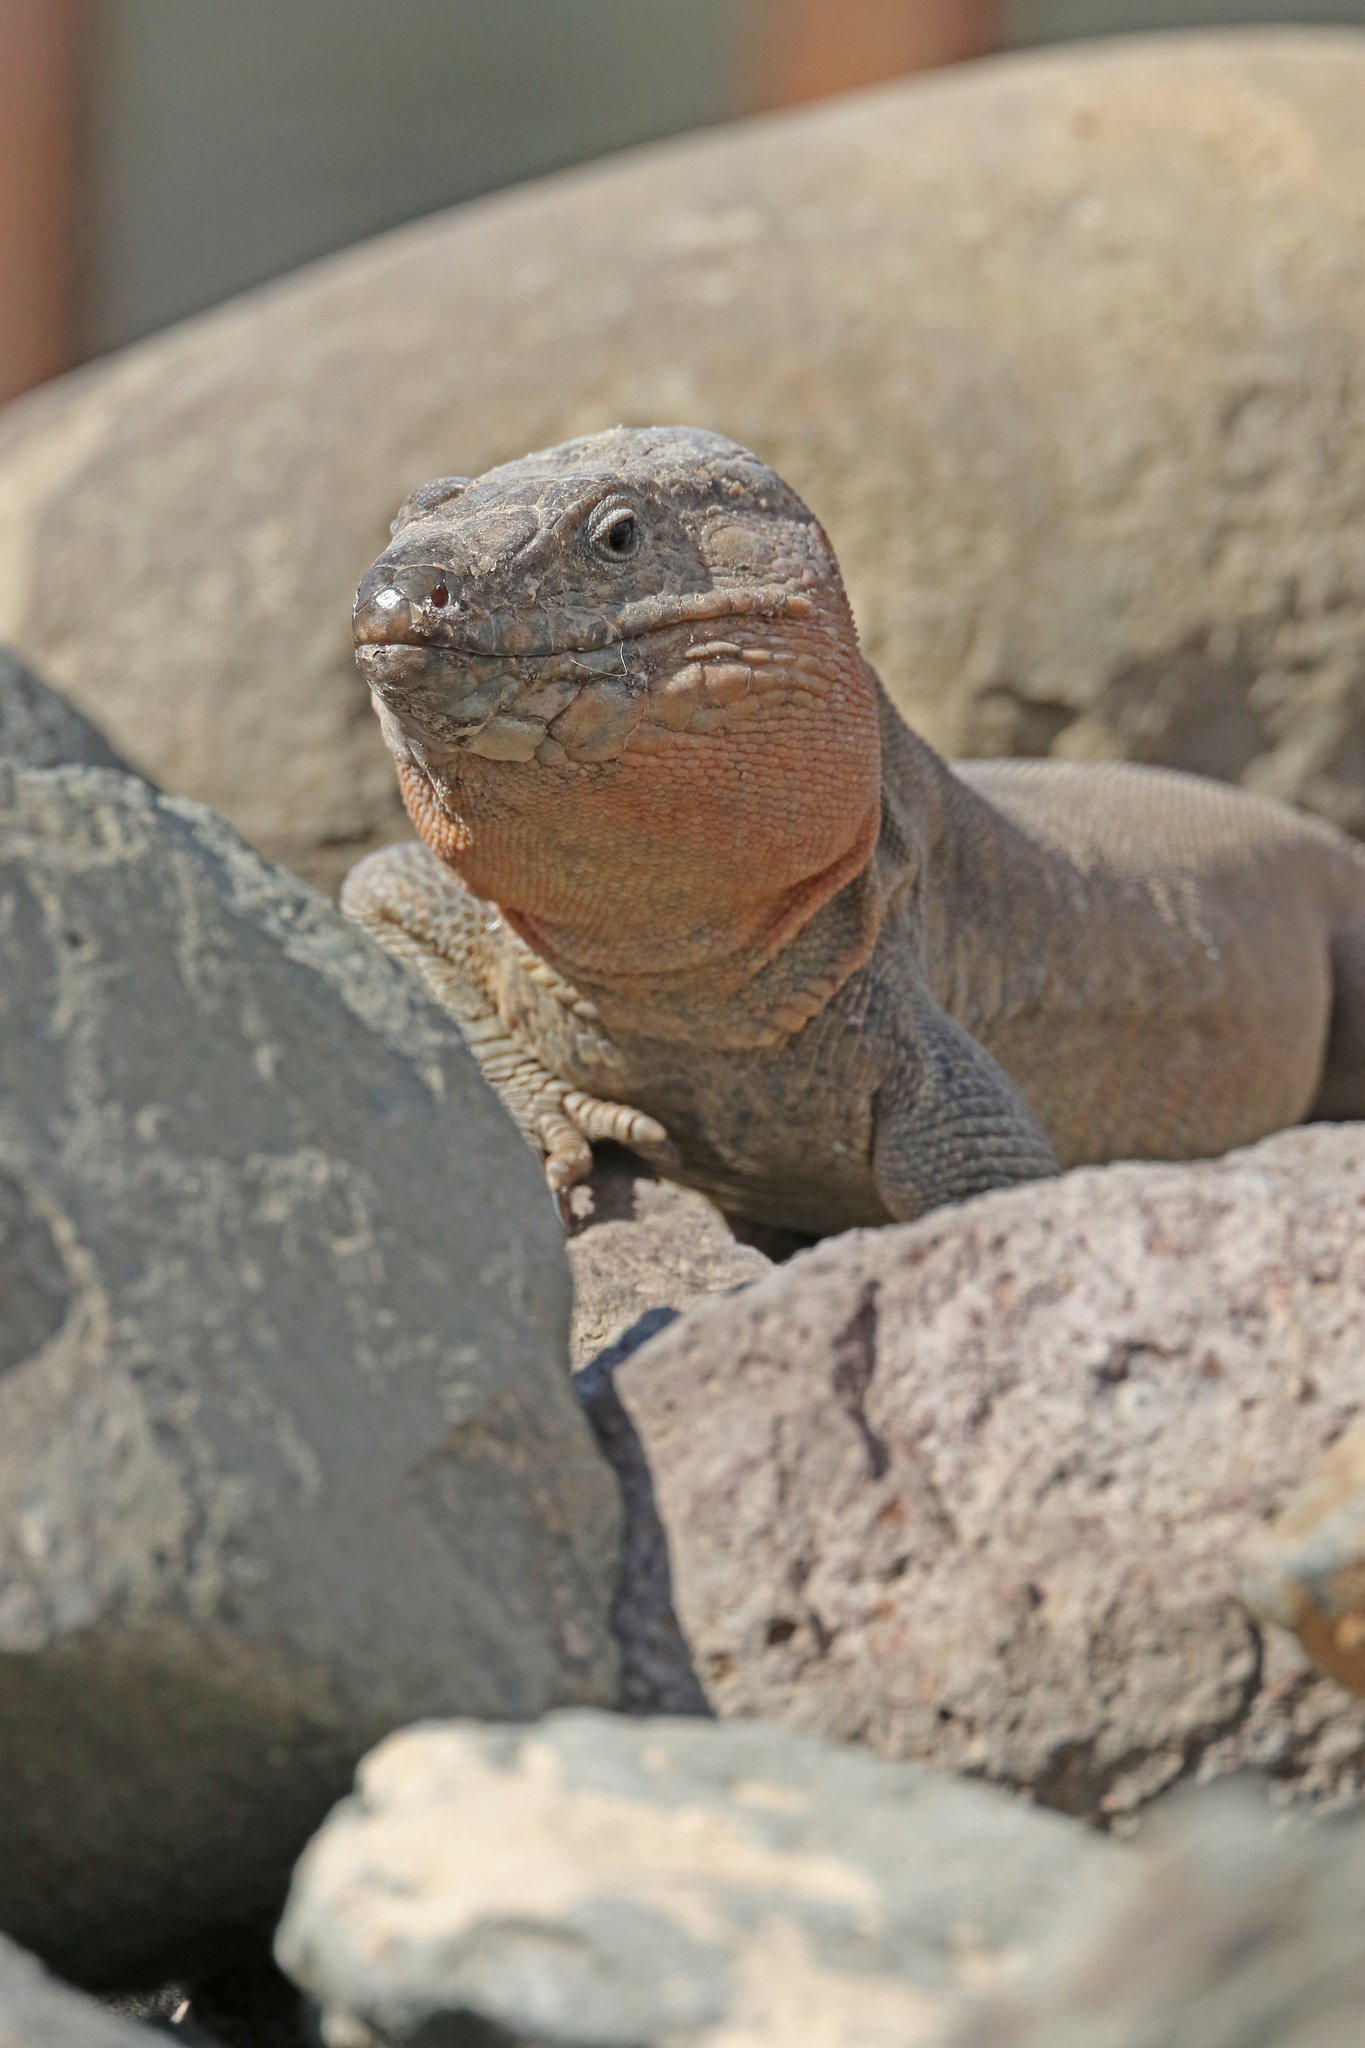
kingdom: Animalia
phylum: Chordata
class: Squamata
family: Lacertidae
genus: Gallotia
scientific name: Gallotia stehlini
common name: Gran canaria giant lizard
